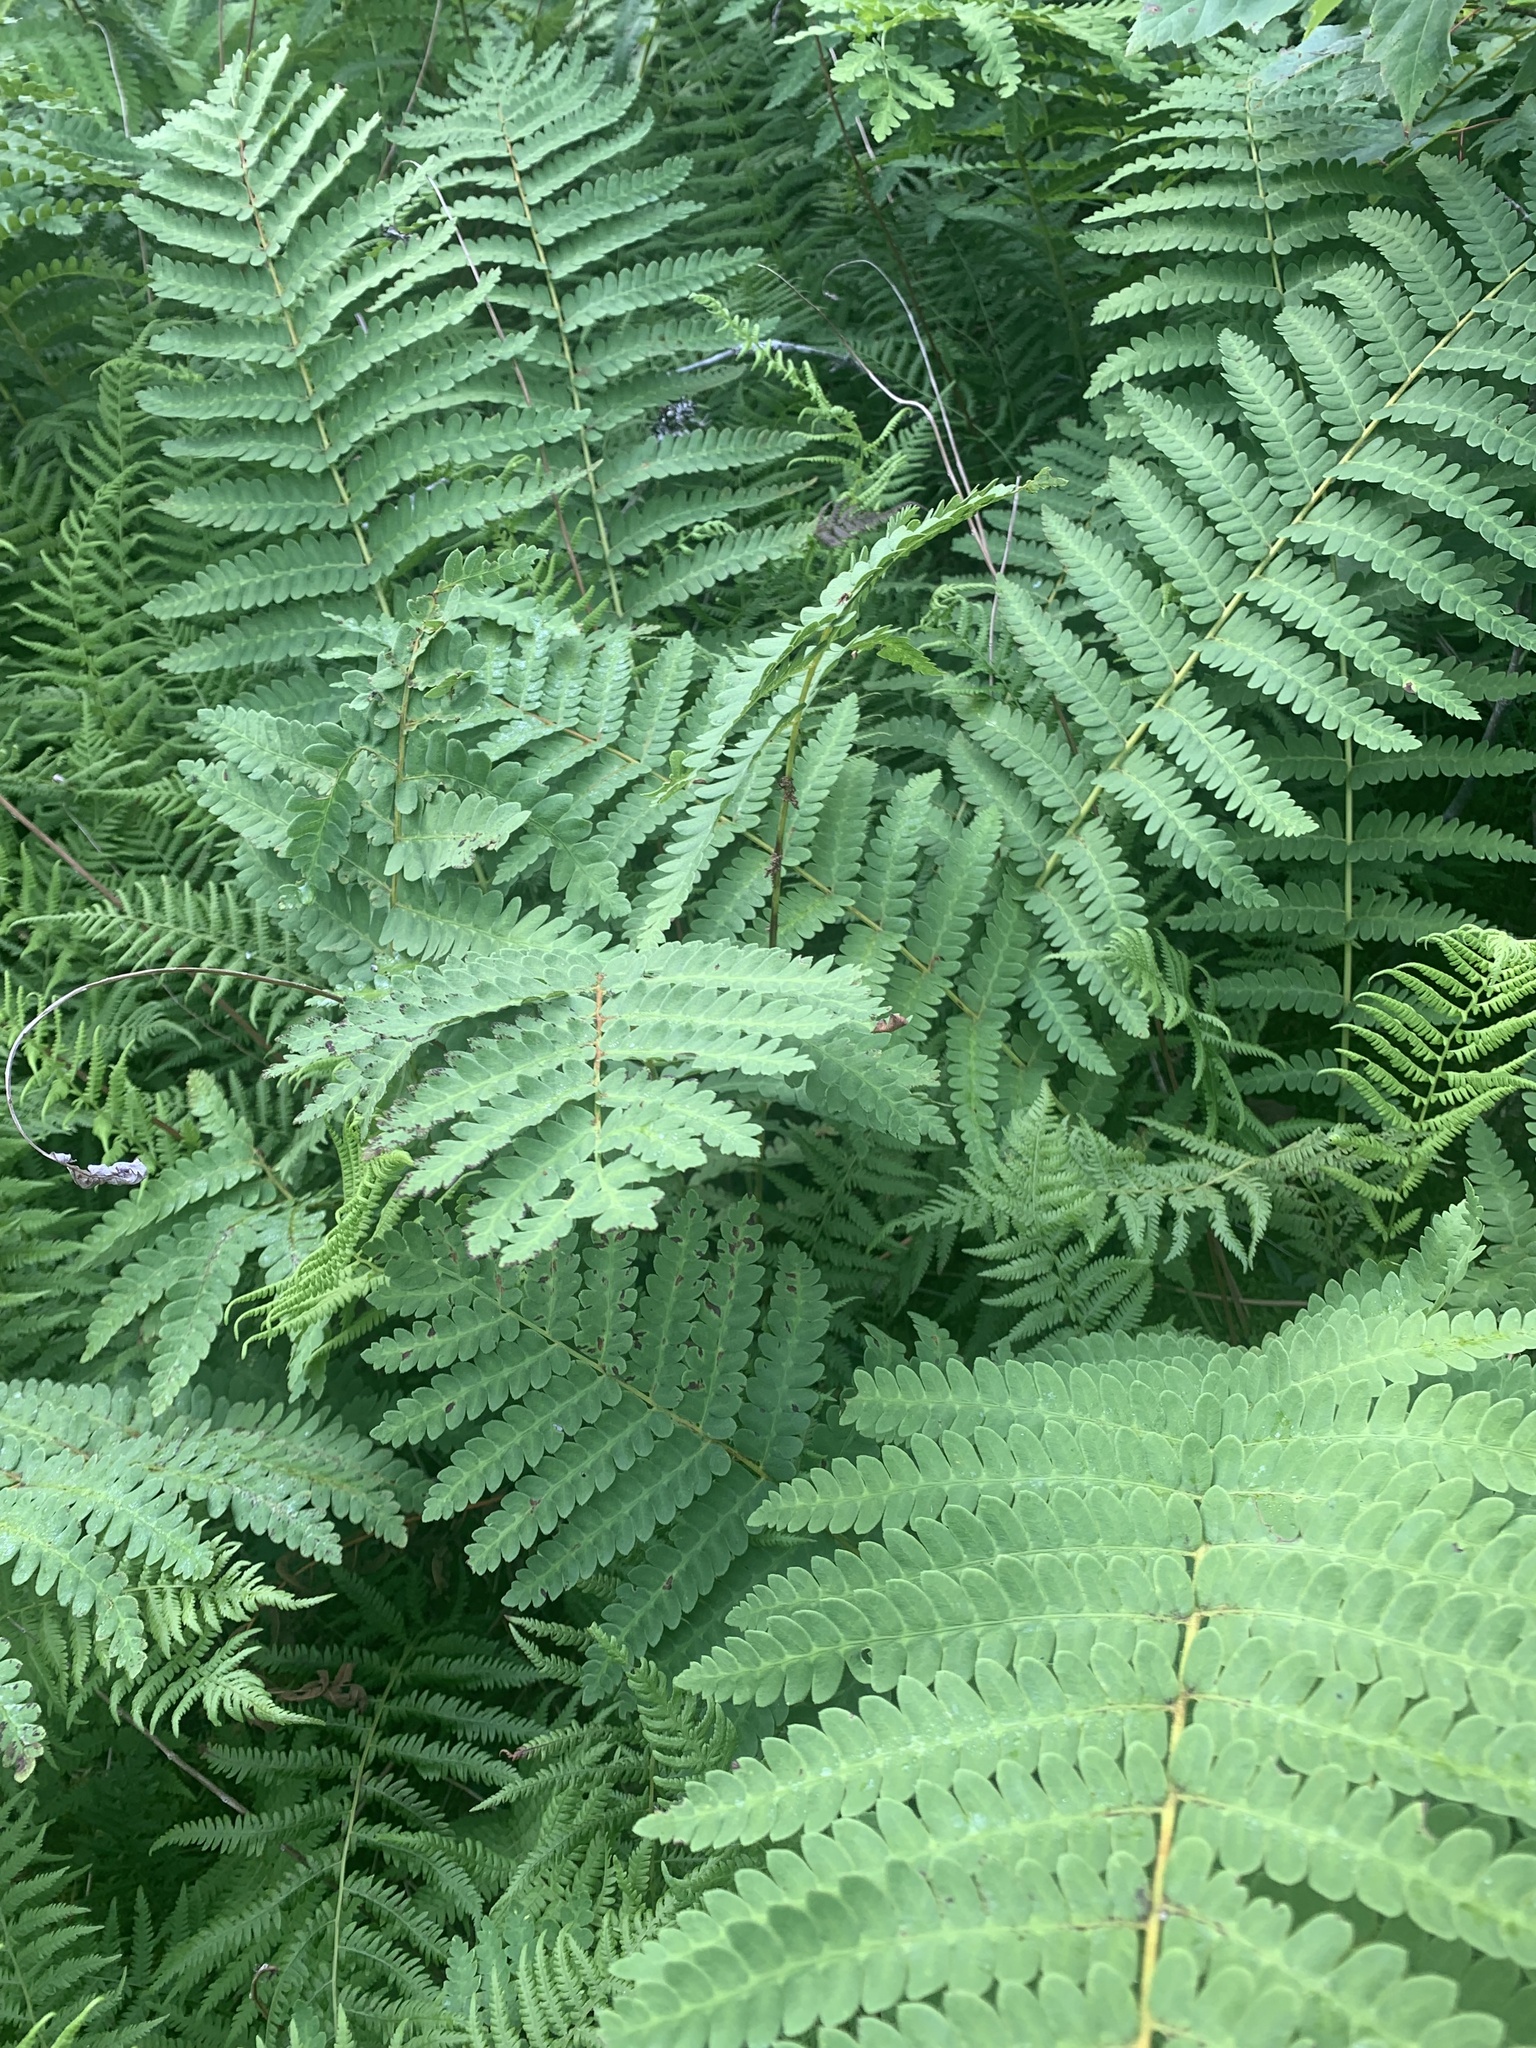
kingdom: Plantae
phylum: Tracheophyta
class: Polypodiopsida
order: Osmundales
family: Osmundaceae
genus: Claytosmunda
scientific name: Claytosmunda claytoniana
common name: Clayton's fern
